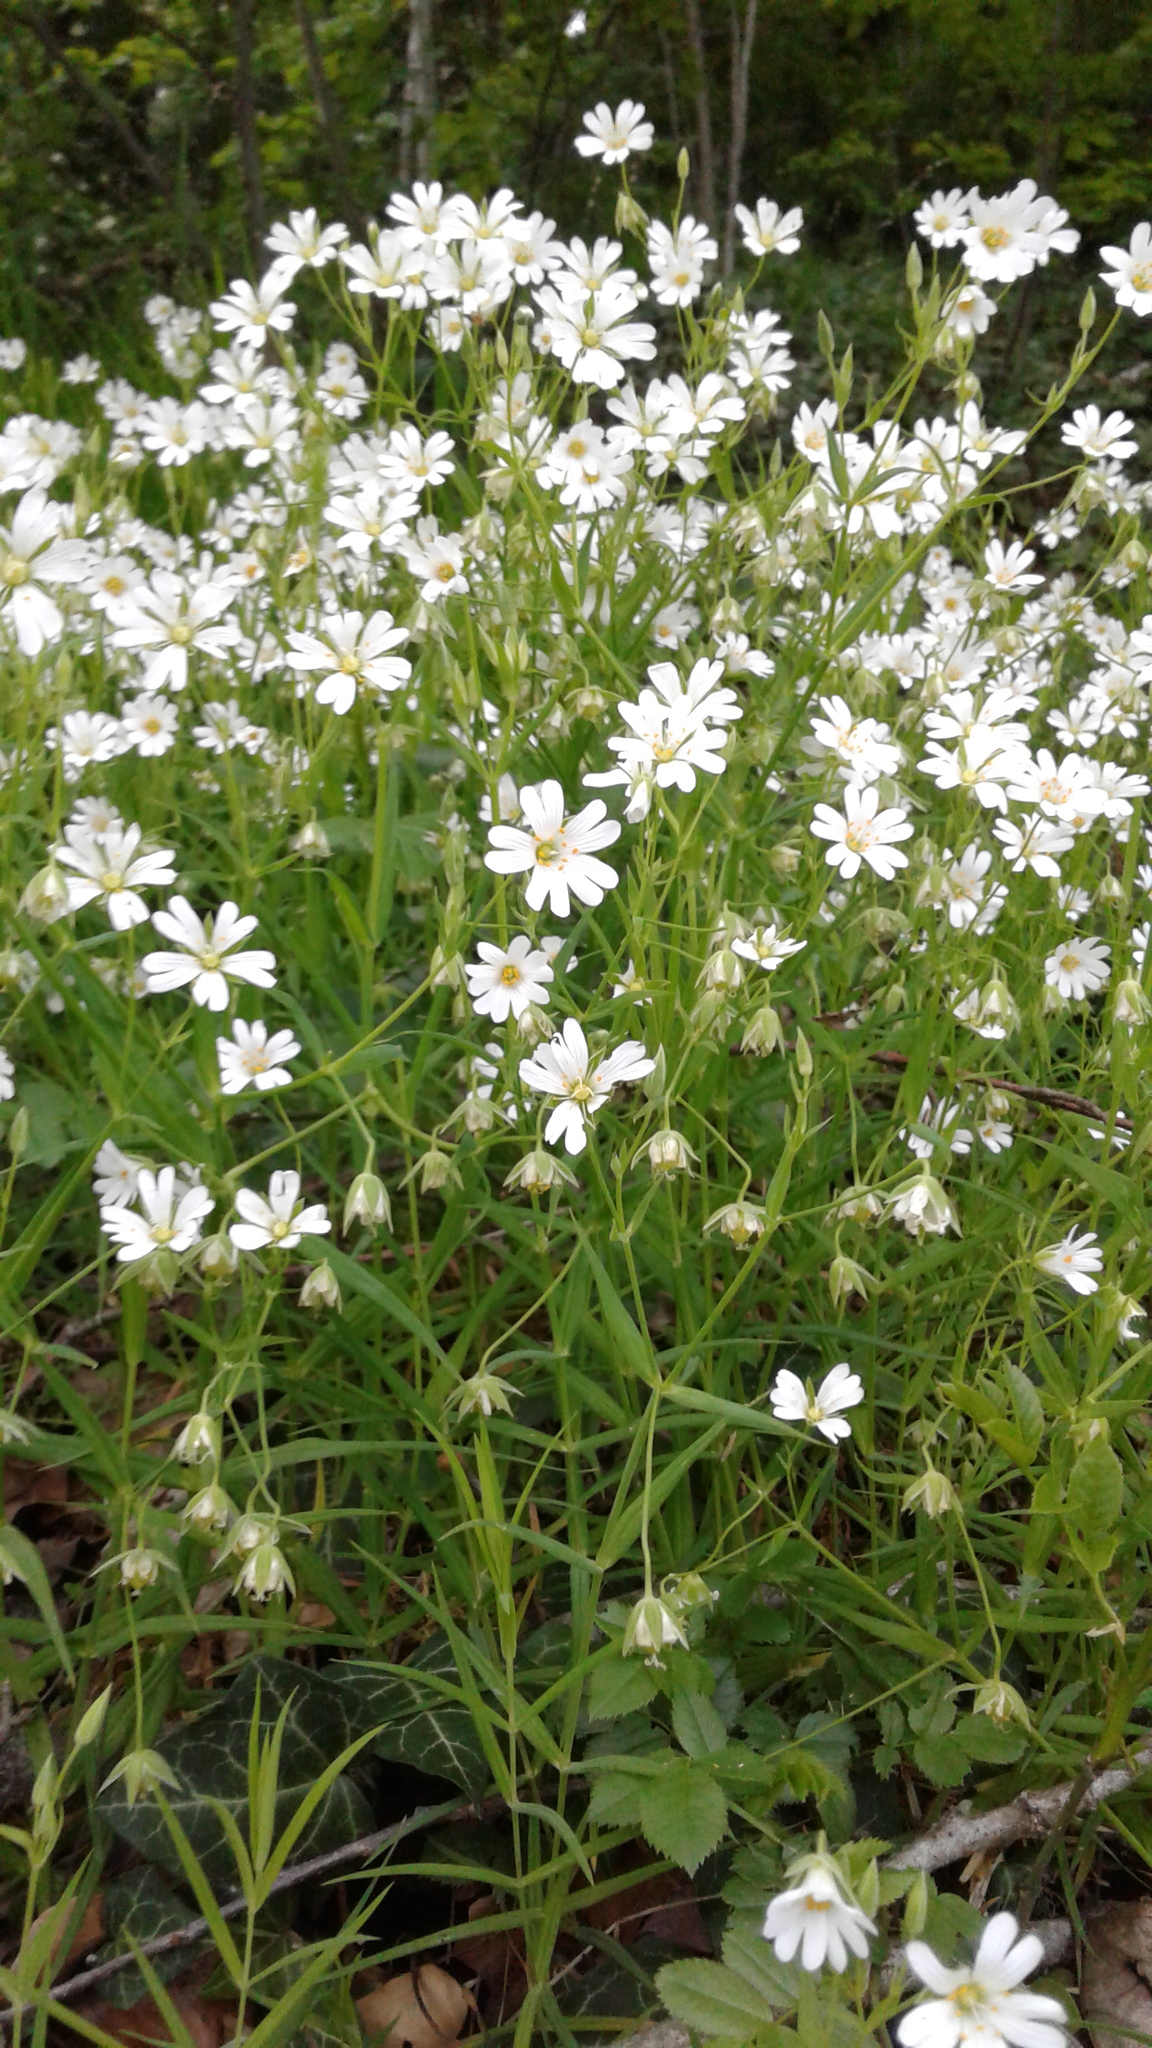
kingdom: Plantae
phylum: Tracheophyta
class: Magnoliopsida
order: Caryophyllales
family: Caryophyllaceae
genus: Rabelera
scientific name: Rabelera holostea
